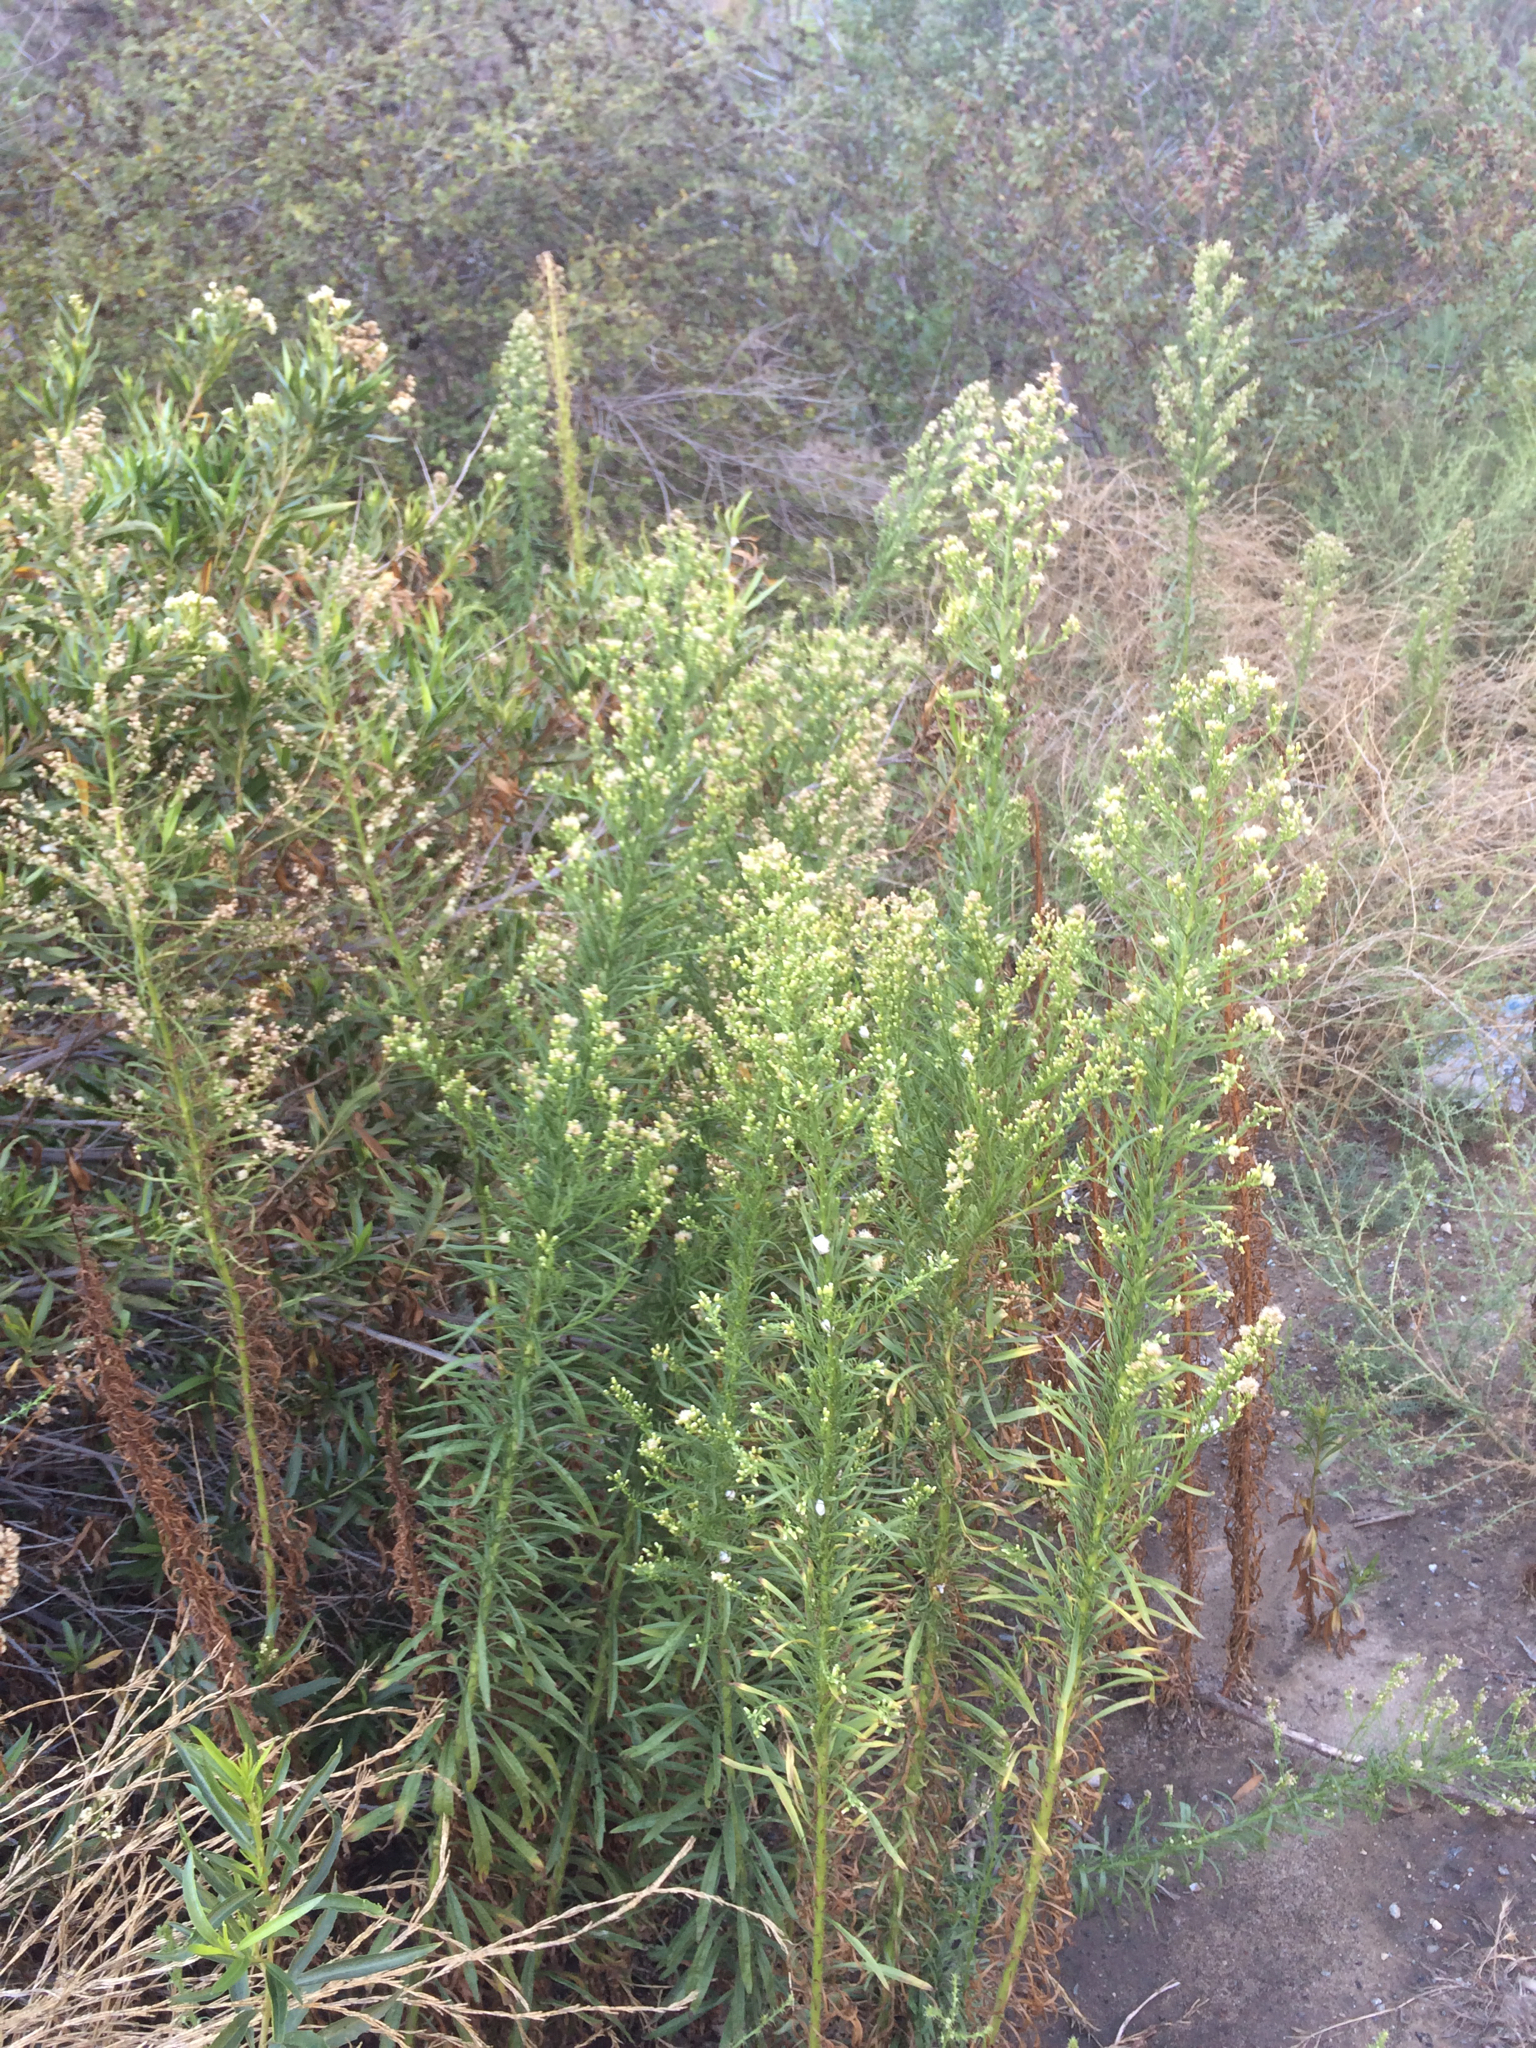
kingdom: Plantae
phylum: Tracheophyta
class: Magnoliopsida
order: Asterales
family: Asteraceae
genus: Erigeron
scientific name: Erigeron canadensis
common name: Canadian fleabane
